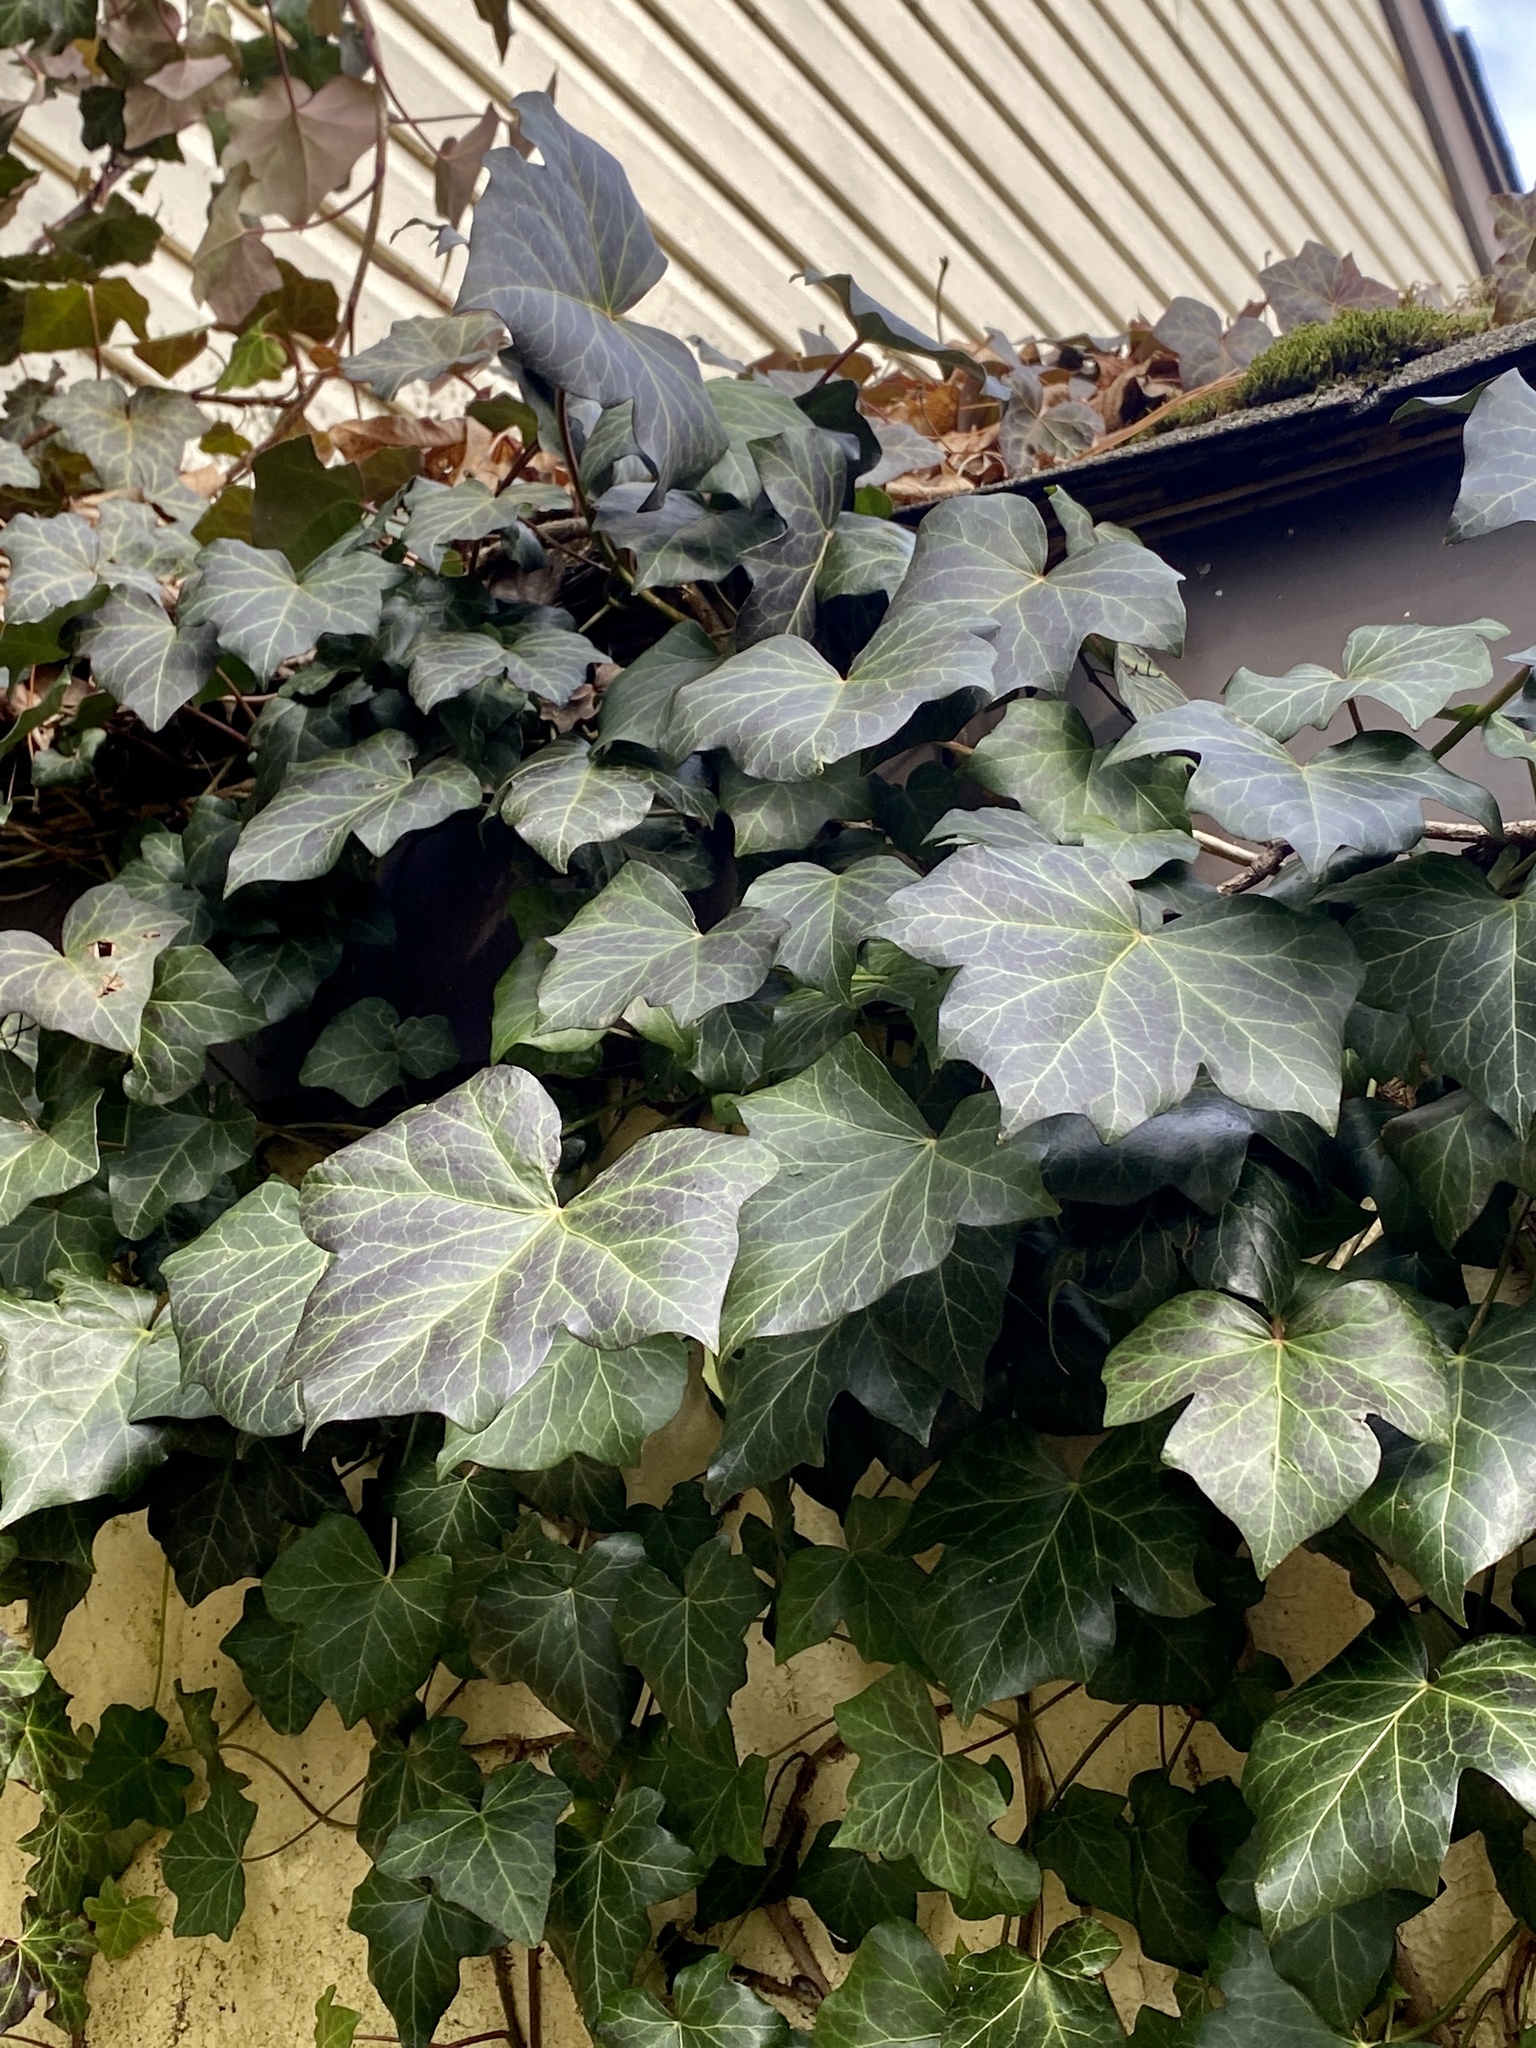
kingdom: Plantae
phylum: Tracheophyta
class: Magnoliopsida
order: Apiales
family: Araliaceae
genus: Hedera
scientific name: Hedera
